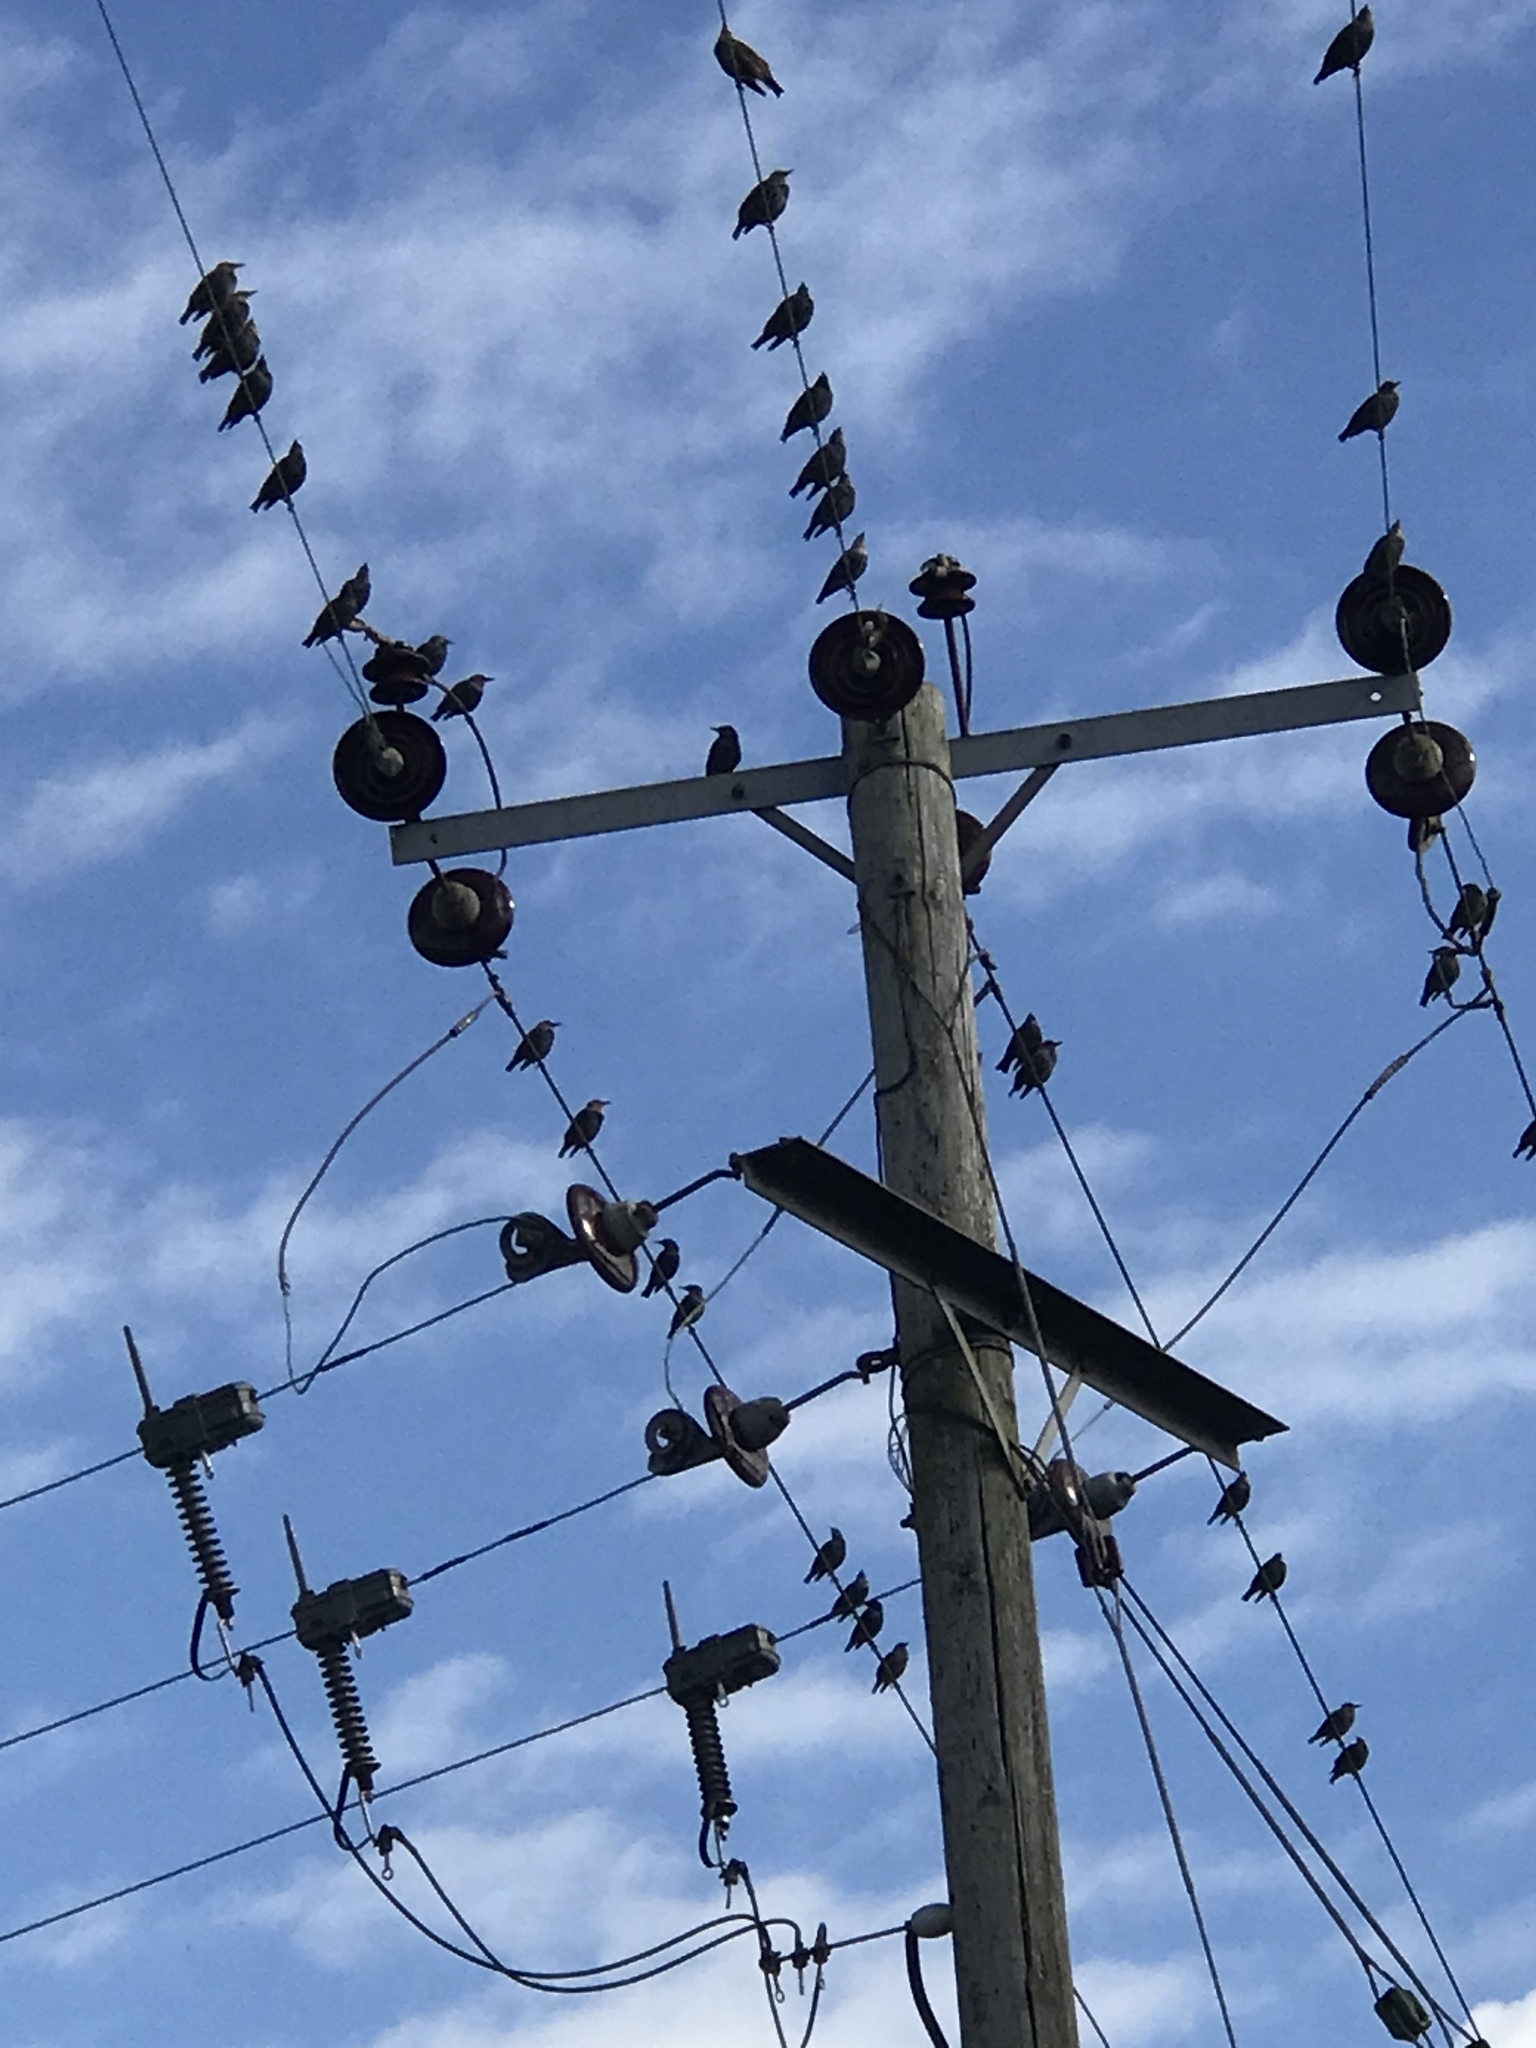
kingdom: Animalia
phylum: Chordata
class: Aves
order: Passeriformes
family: Sturnidae
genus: Sturnus
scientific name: Sturnus vulgaris
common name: Common starling
